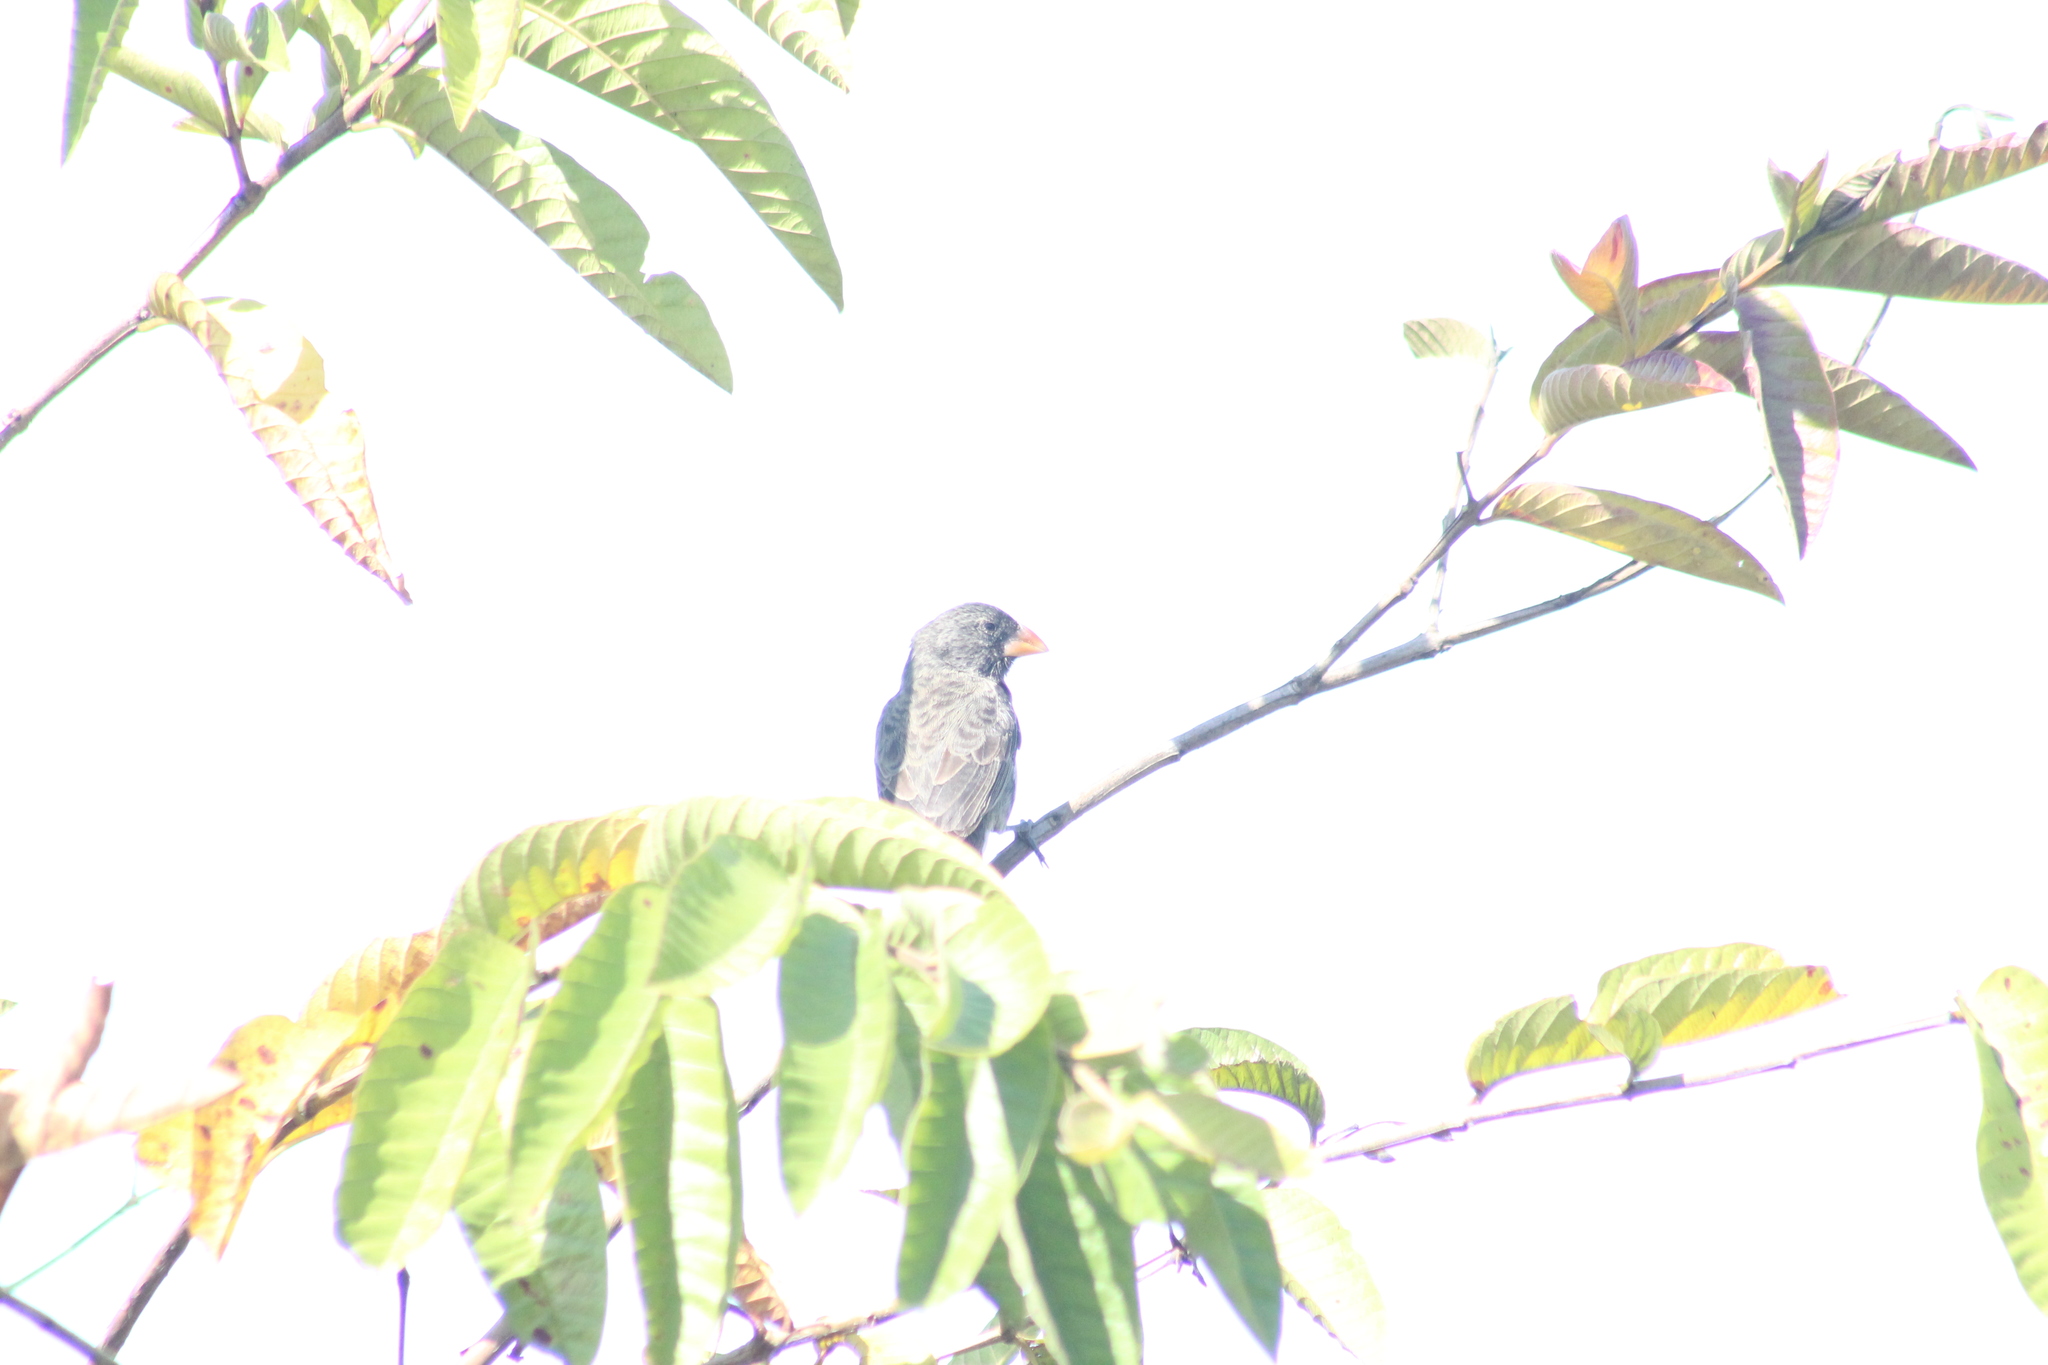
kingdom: Animalia
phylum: Chordata
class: Aves
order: Passeriformes
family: Thraupidae
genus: Geospiza
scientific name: Geospiza fortis
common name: Medium ground finch
